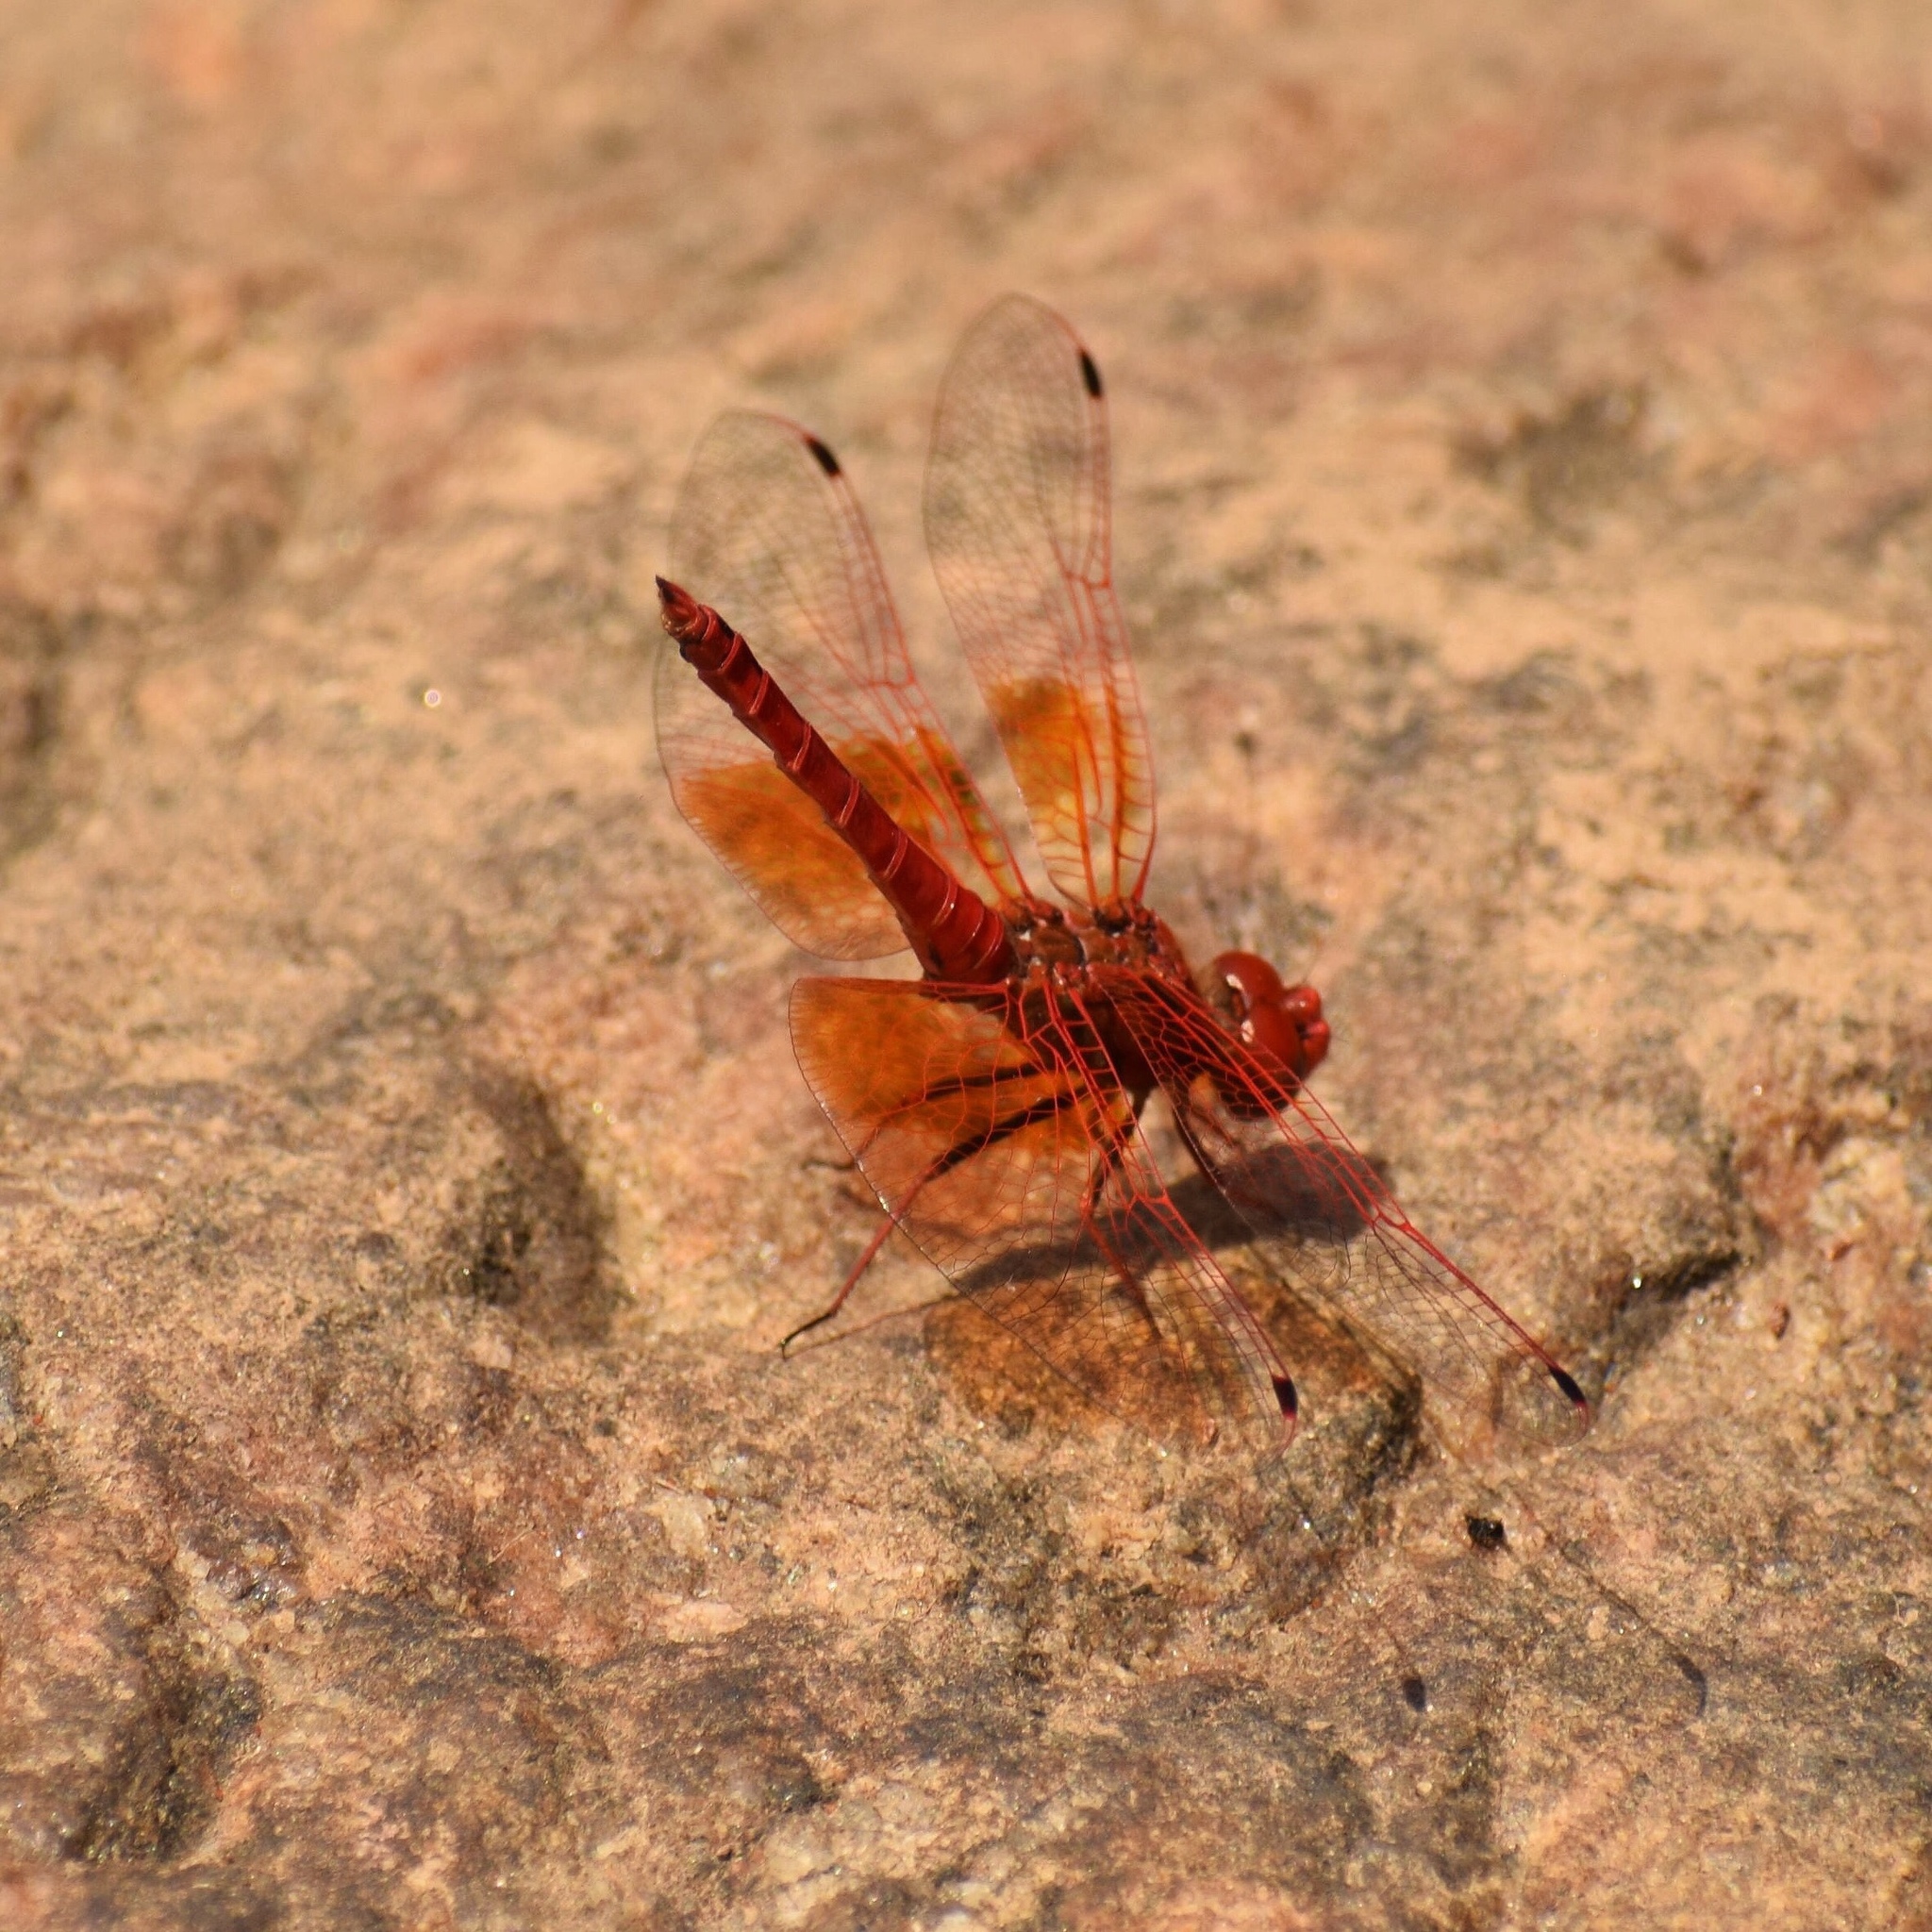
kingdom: Animalia
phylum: Arthropoda
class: Insecta
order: Odonata
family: Libellulidae
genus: Trithemis
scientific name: Trithemis kirbyi
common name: Kirby's dropwing
